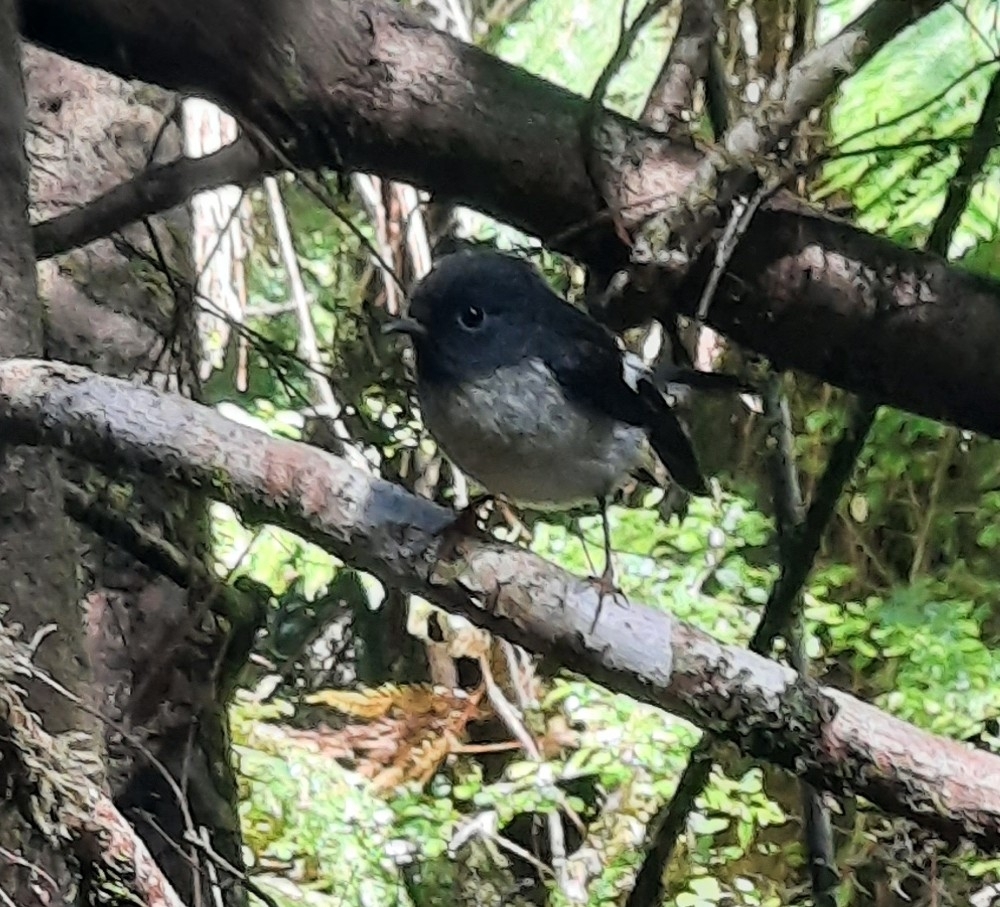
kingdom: Animalia
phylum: Chordata
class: Aves
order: Passeriformes
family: Petroicidae
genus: Petroica
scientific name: Petroica macrocephala
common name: Tomtit
